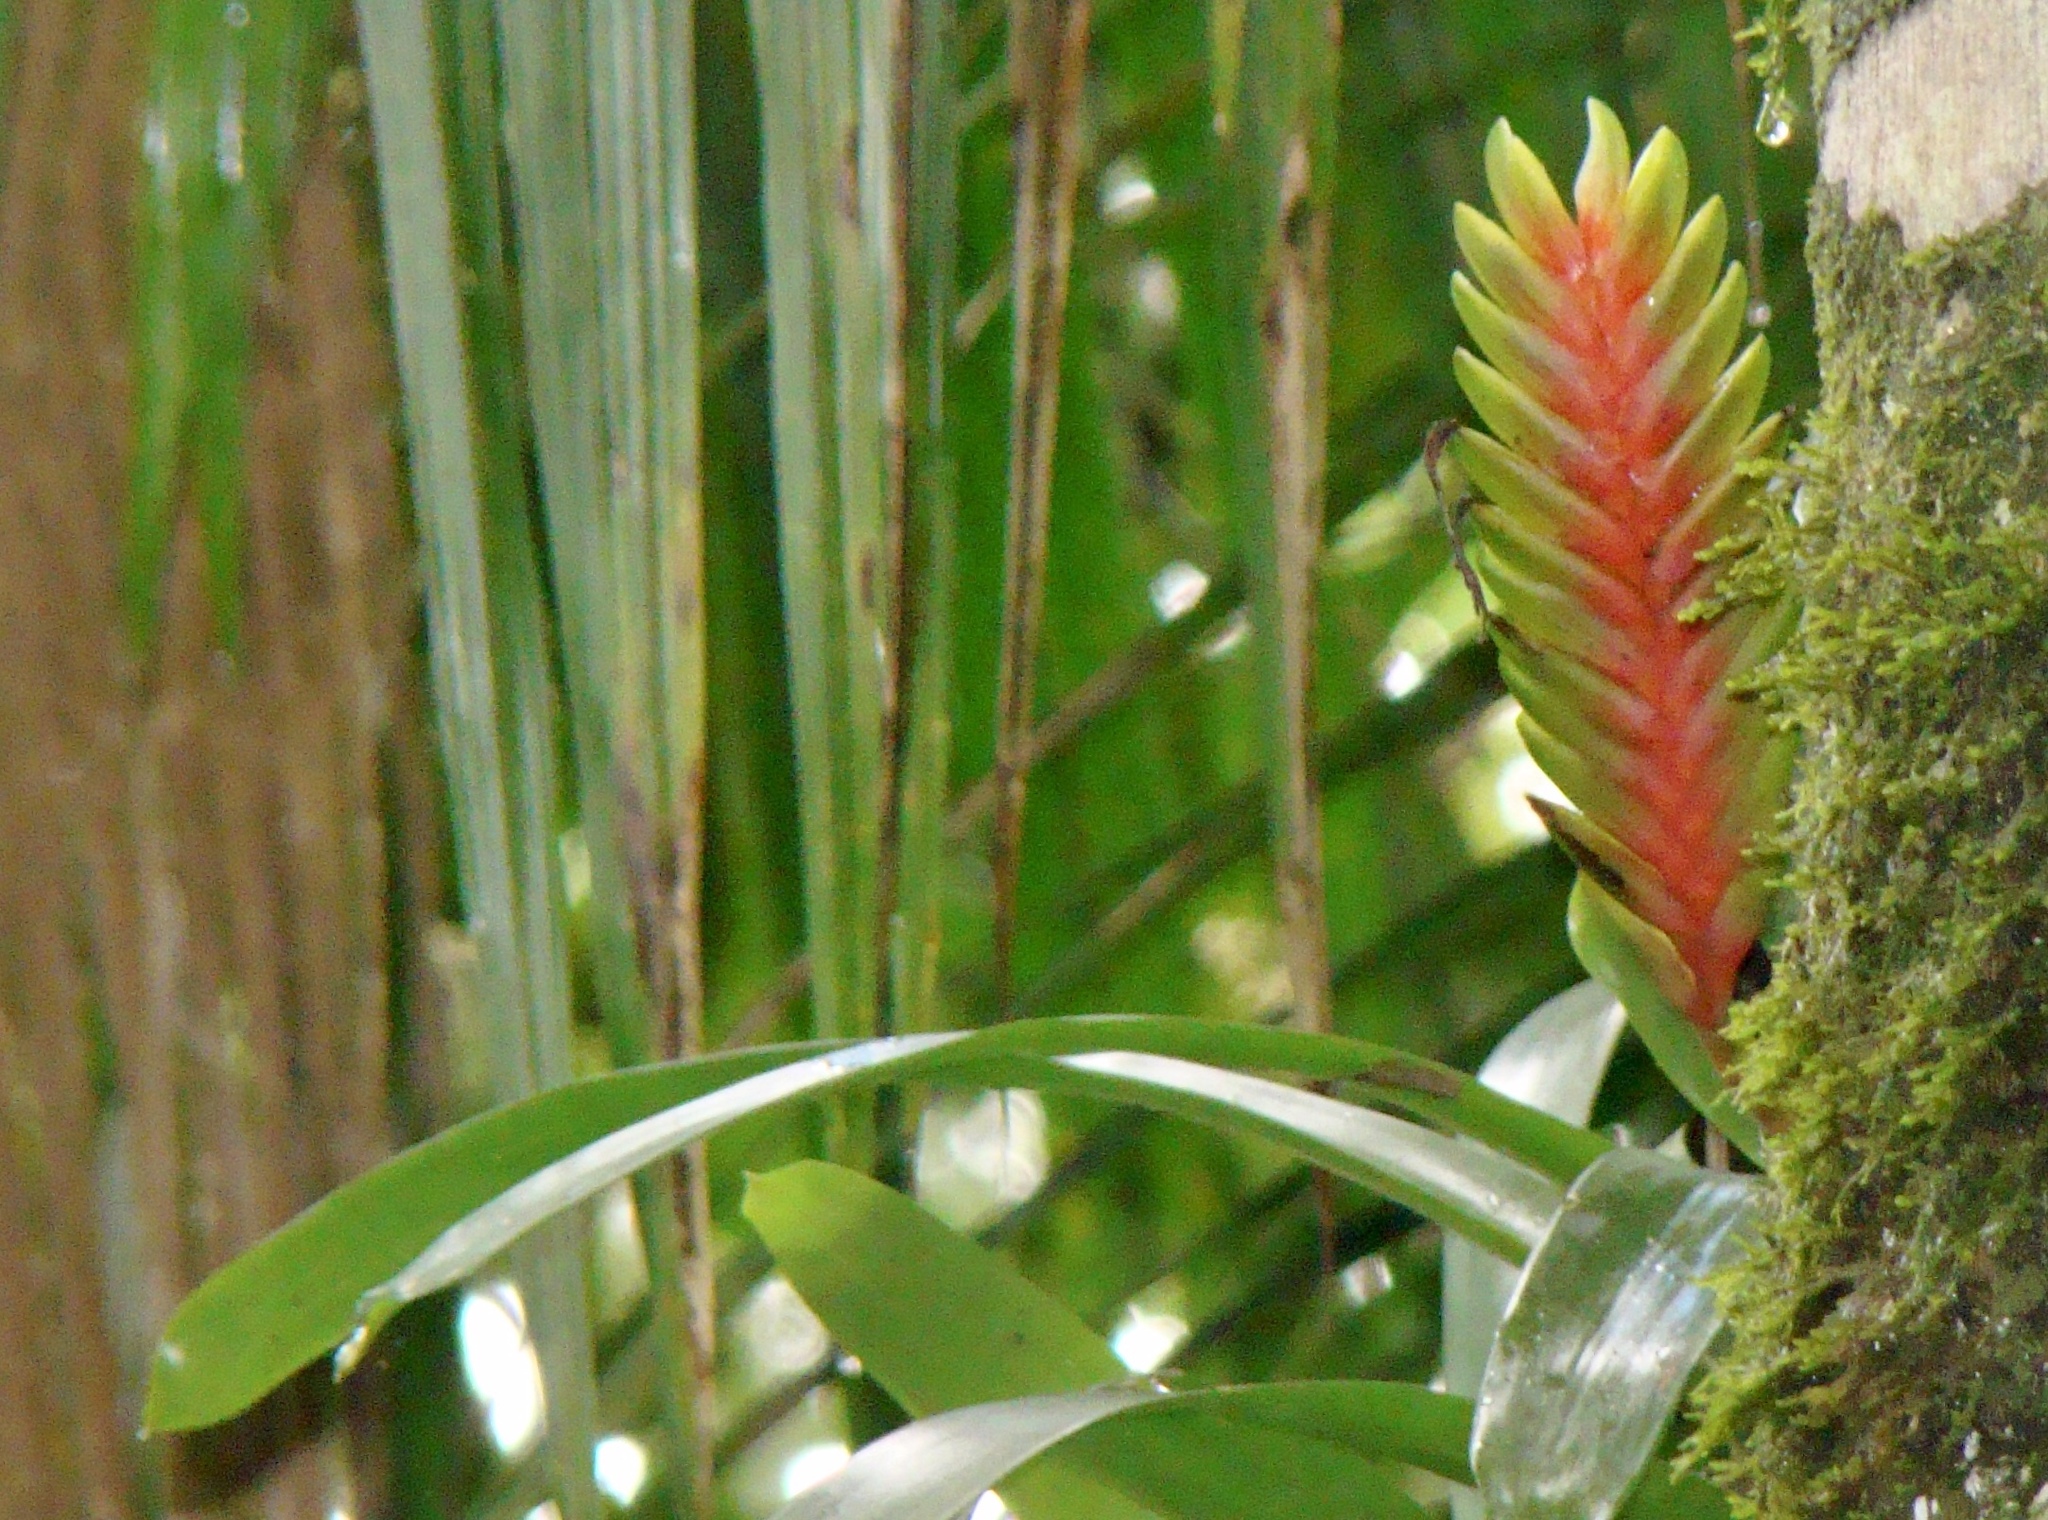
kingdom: Plantae
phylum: Tracheophyta
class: Liliopsida
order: Poales
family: Bromeliaceae
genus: Vriesea
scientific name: Vriesea interrogatoria
